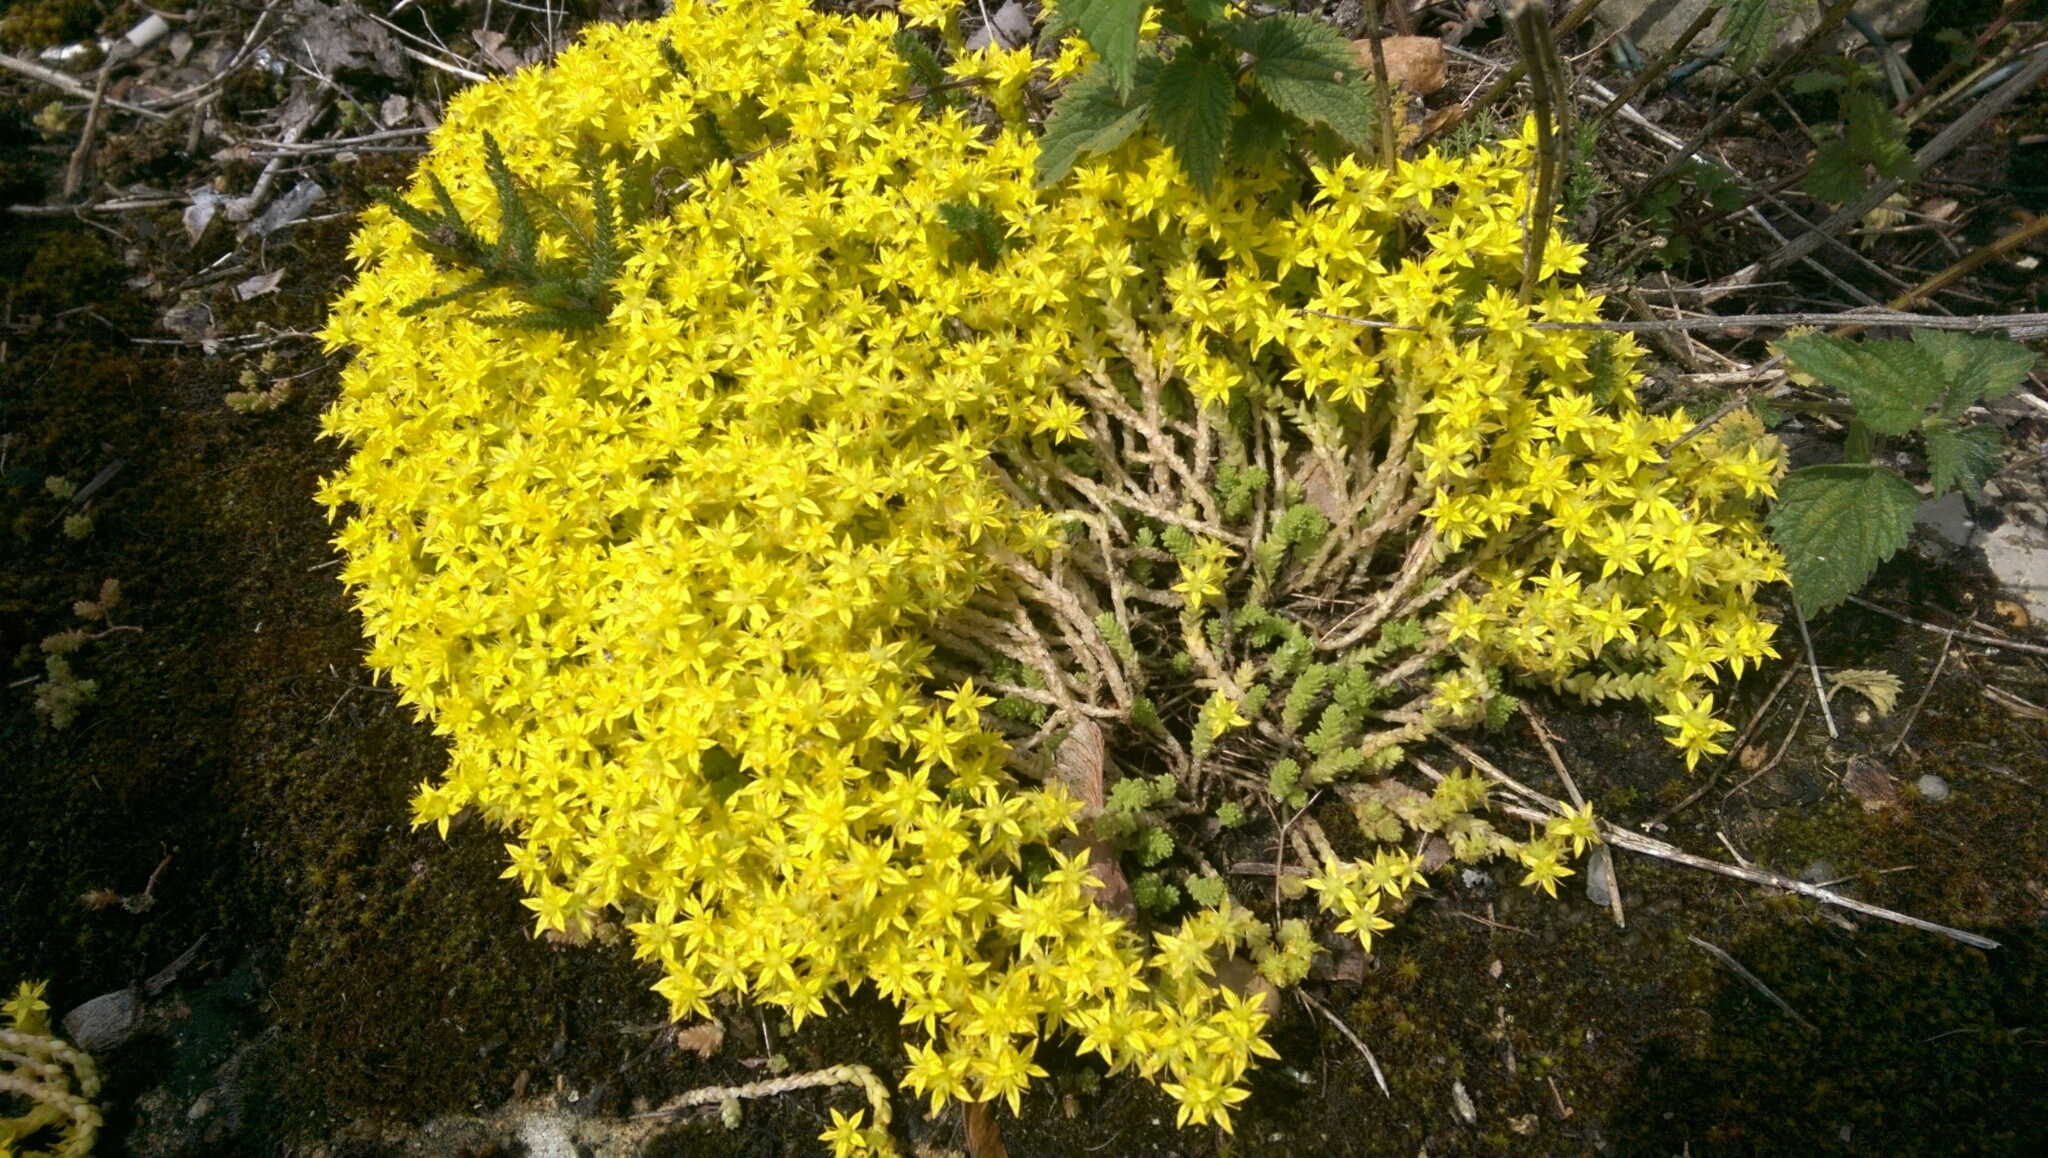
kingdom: Plantae
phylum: Tracheophyta
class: Magnoliopsida
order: Saxifragales
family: Crassulaceae
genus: Sedum
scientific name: Sedum acre
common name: Biting stonecrop
